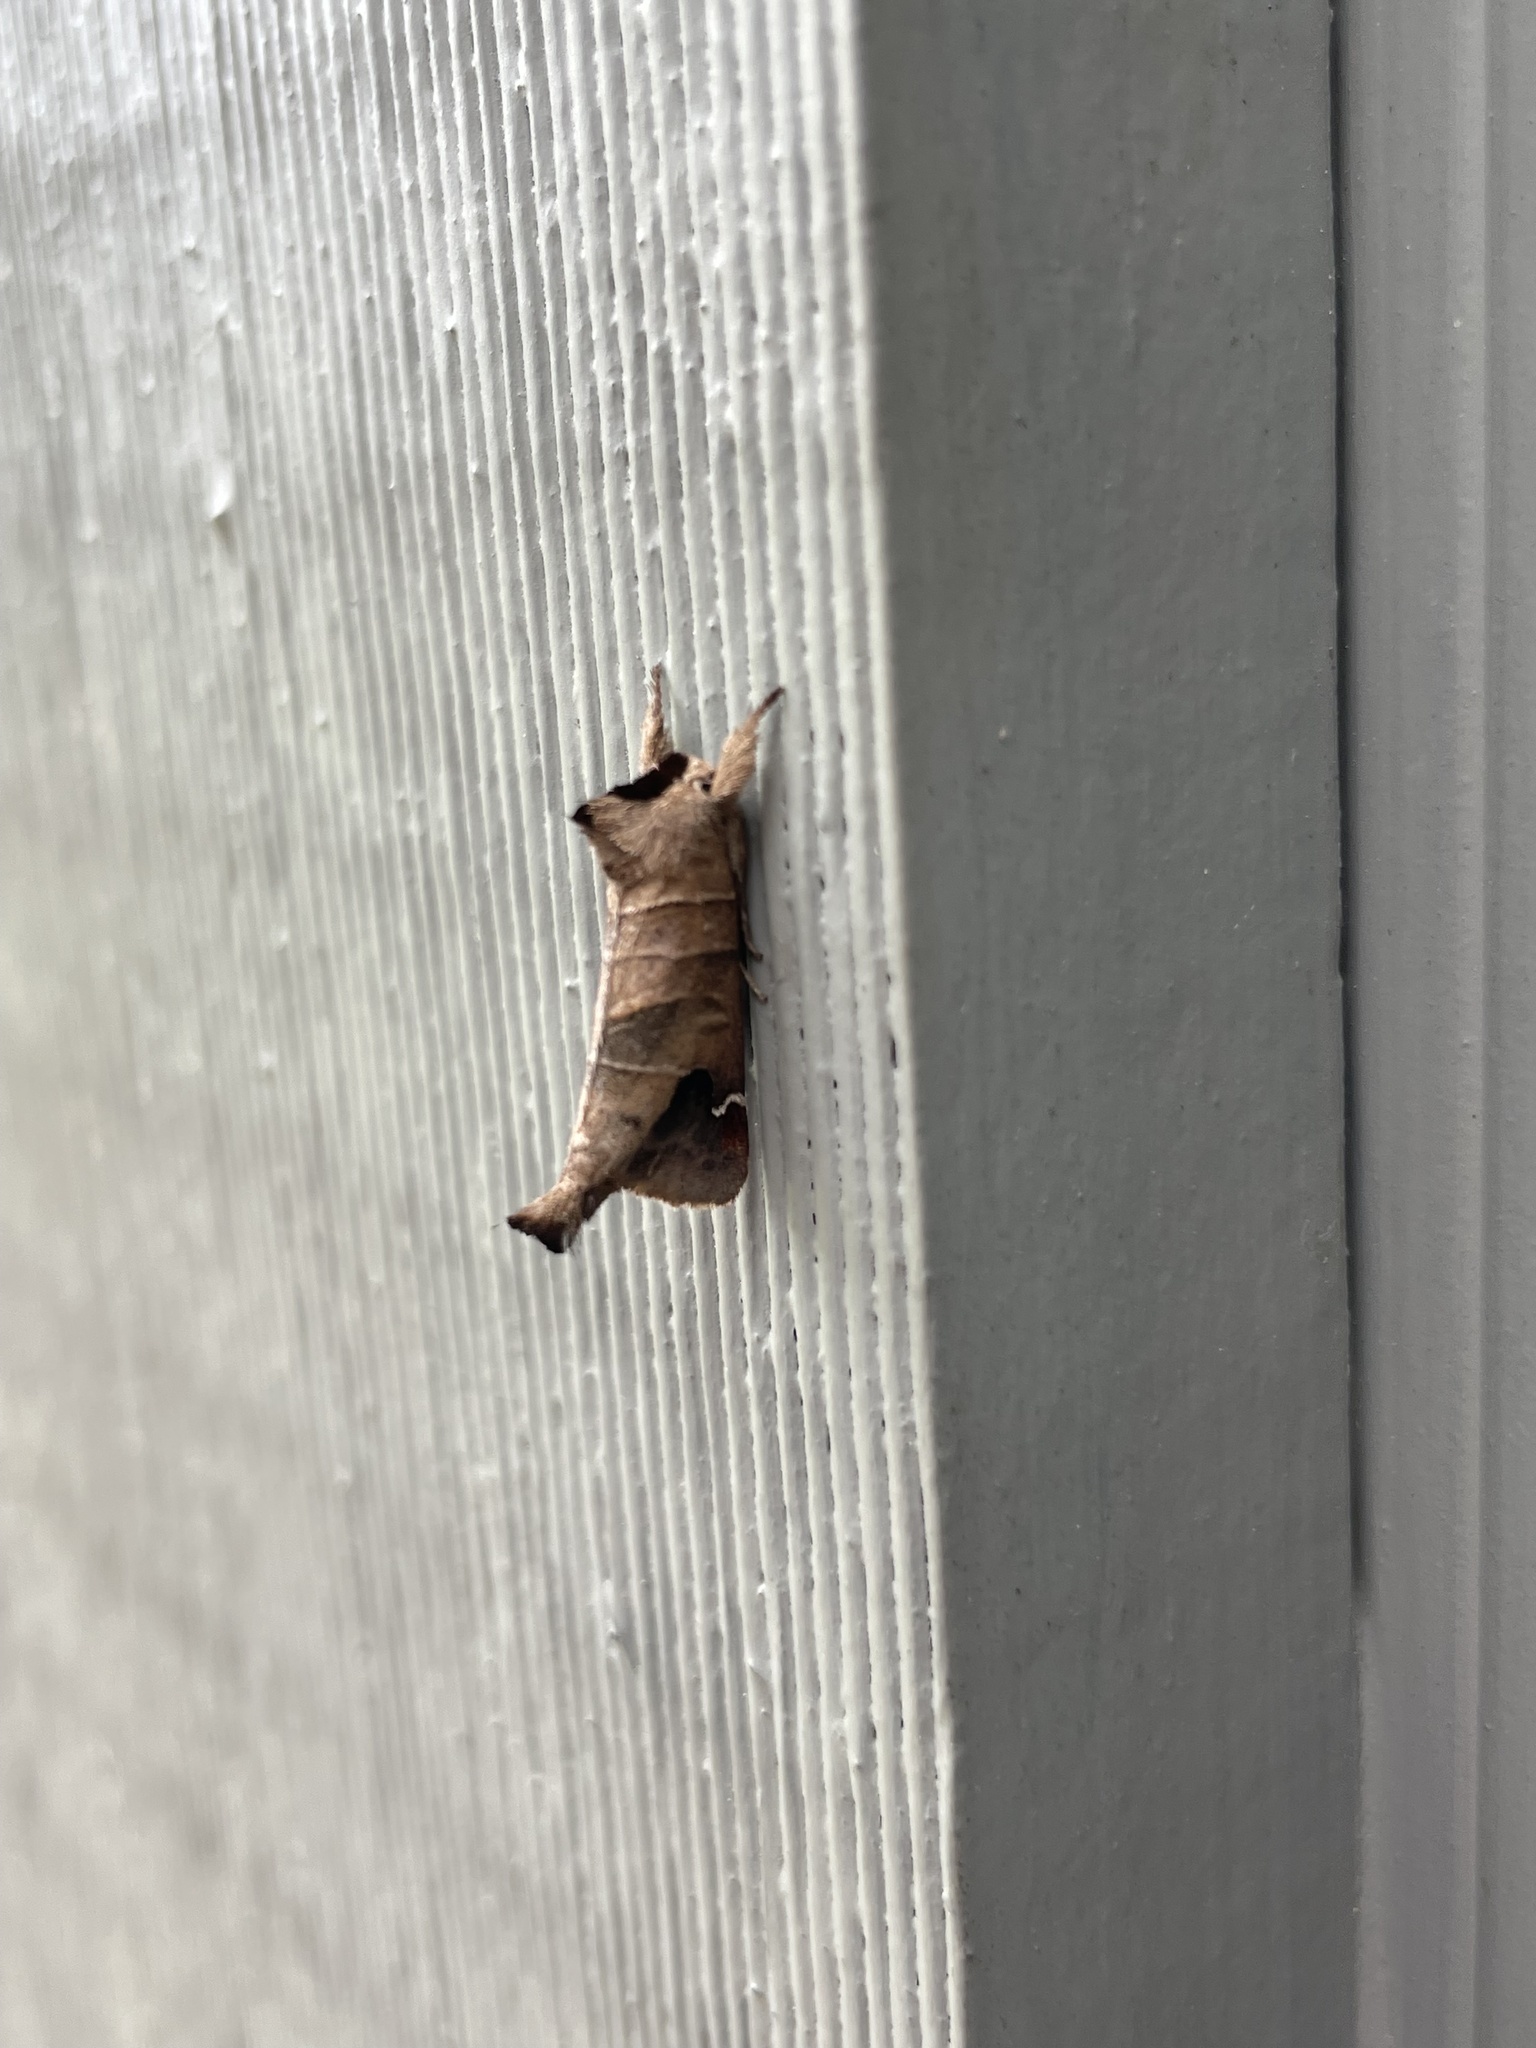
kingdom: Animalia
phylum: Arthropoda
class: Insecta
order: Lepidoptera
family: Notodontidae
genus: Clostera
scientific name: Clostera albosigma
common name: Sigmoid prominent
